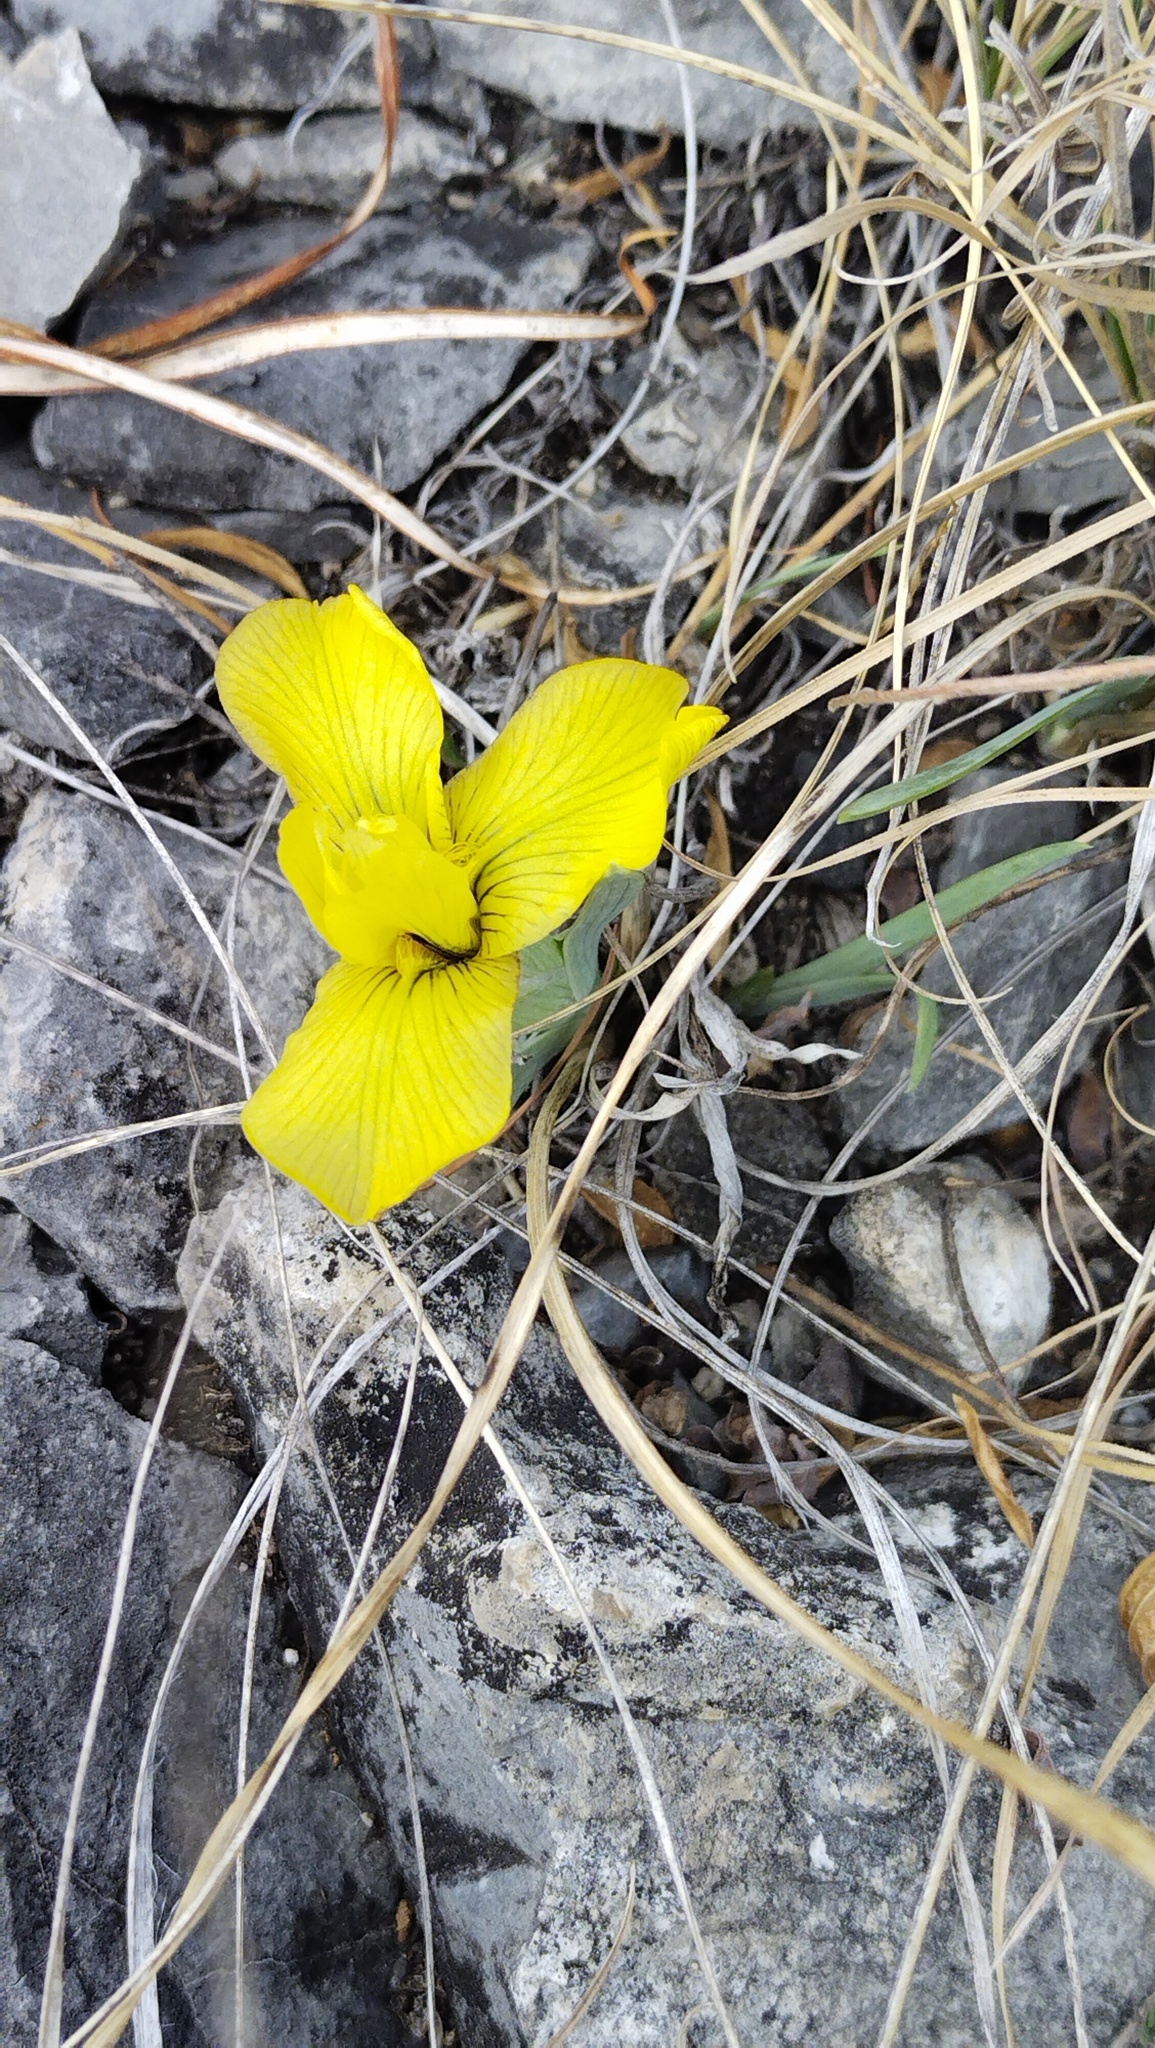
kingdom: Plantae
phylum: Tracheophyta
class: Liliopsida
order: Asparagales
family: Iridaceae
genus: Iris
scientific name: Iris humilis
